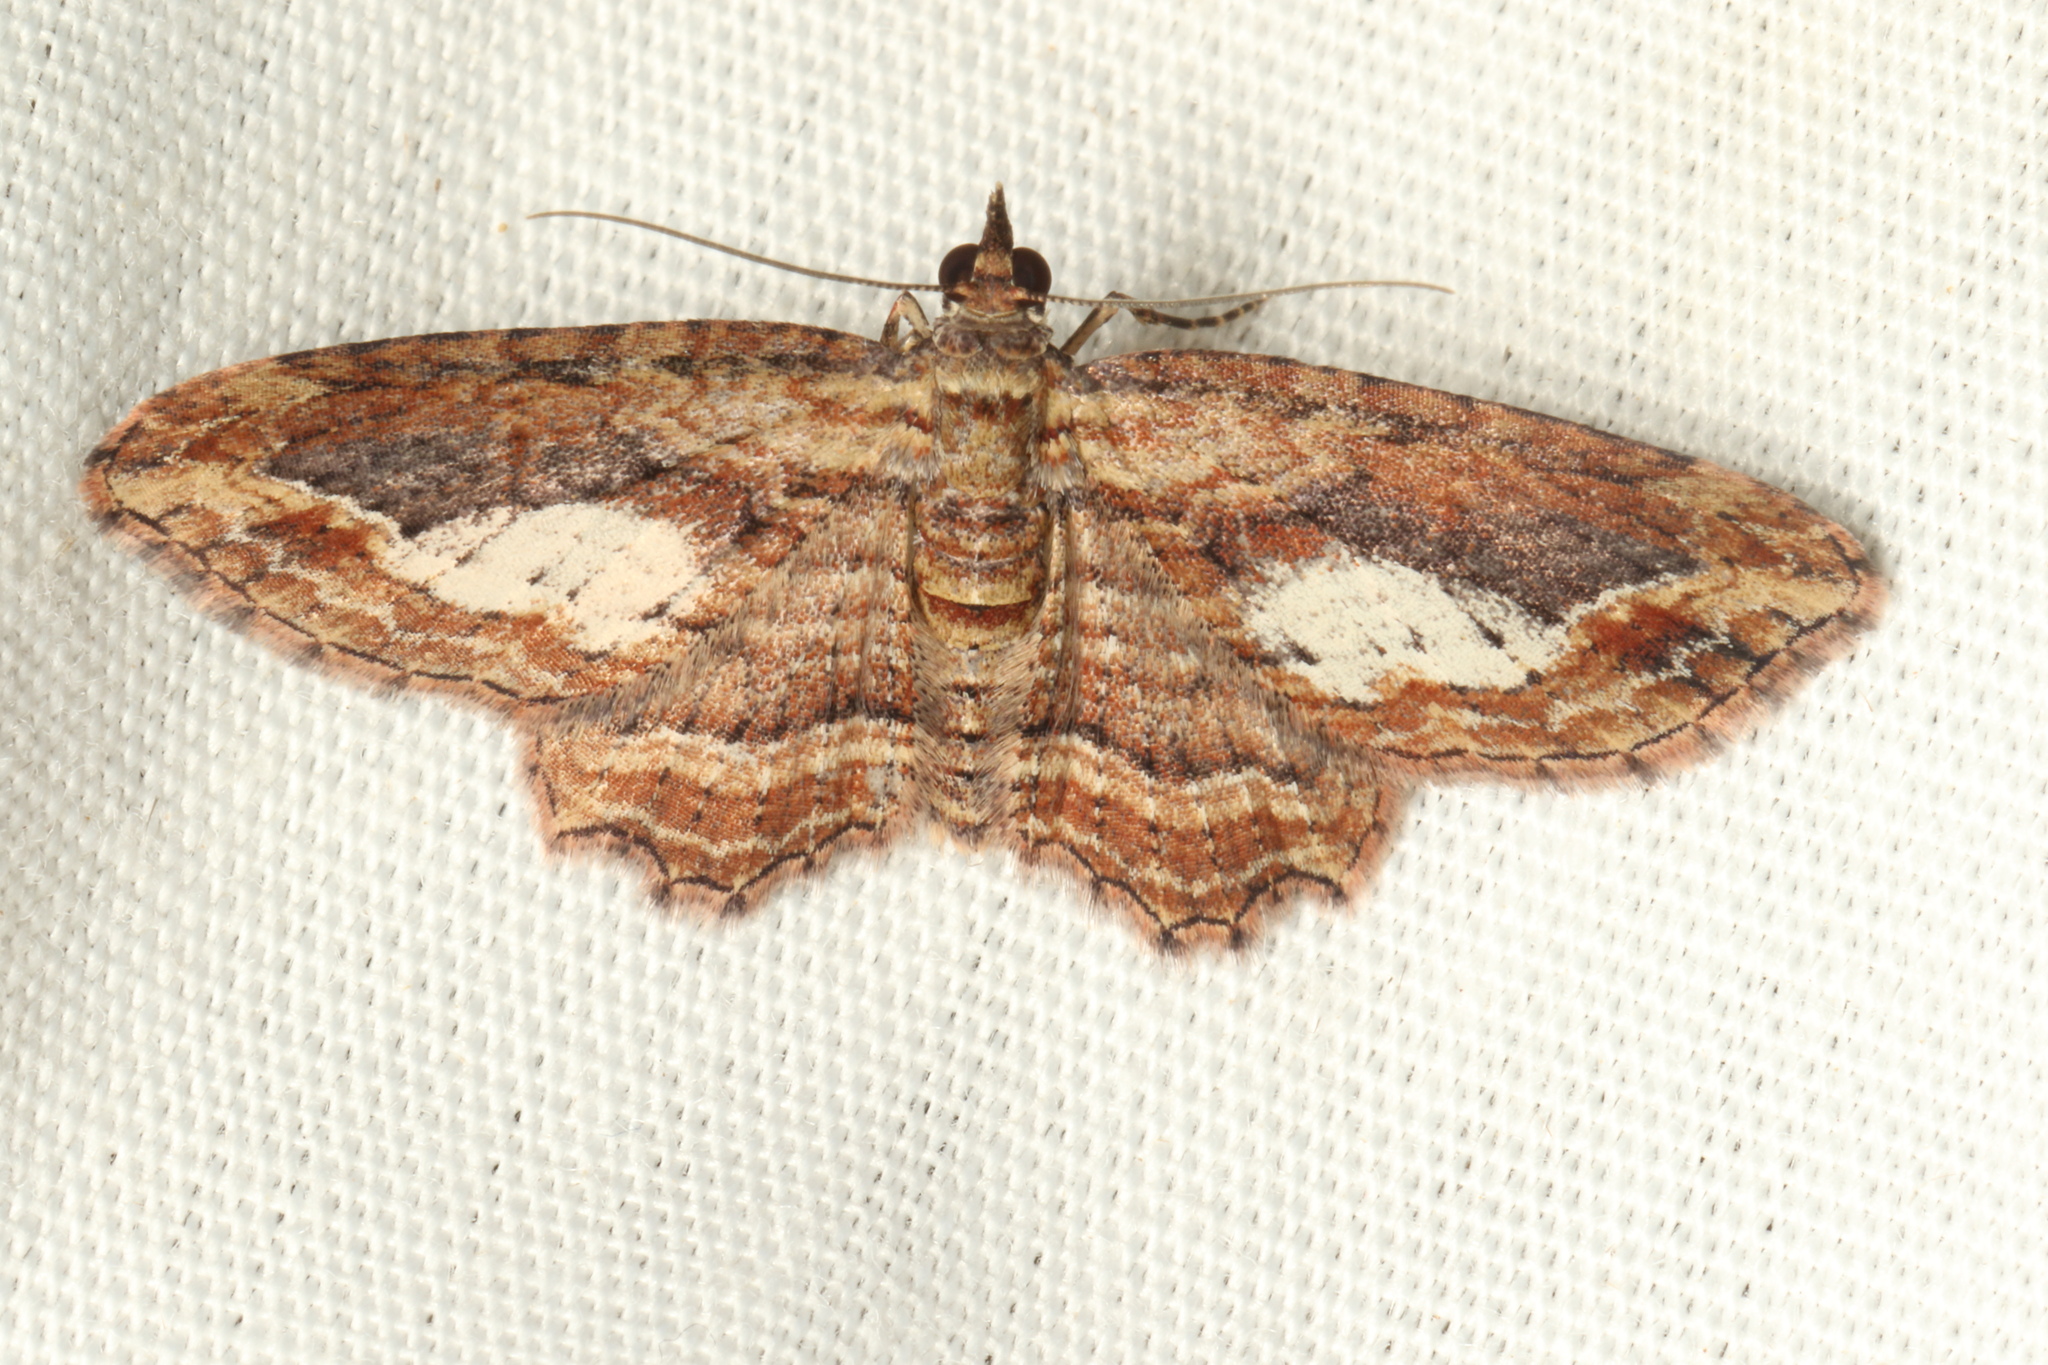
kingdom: Animalia
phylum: Arthropoda
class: Insecta
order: Lepidoptera
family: Geometridae
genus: Chloroclystis
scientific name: Chloroclystis filata
